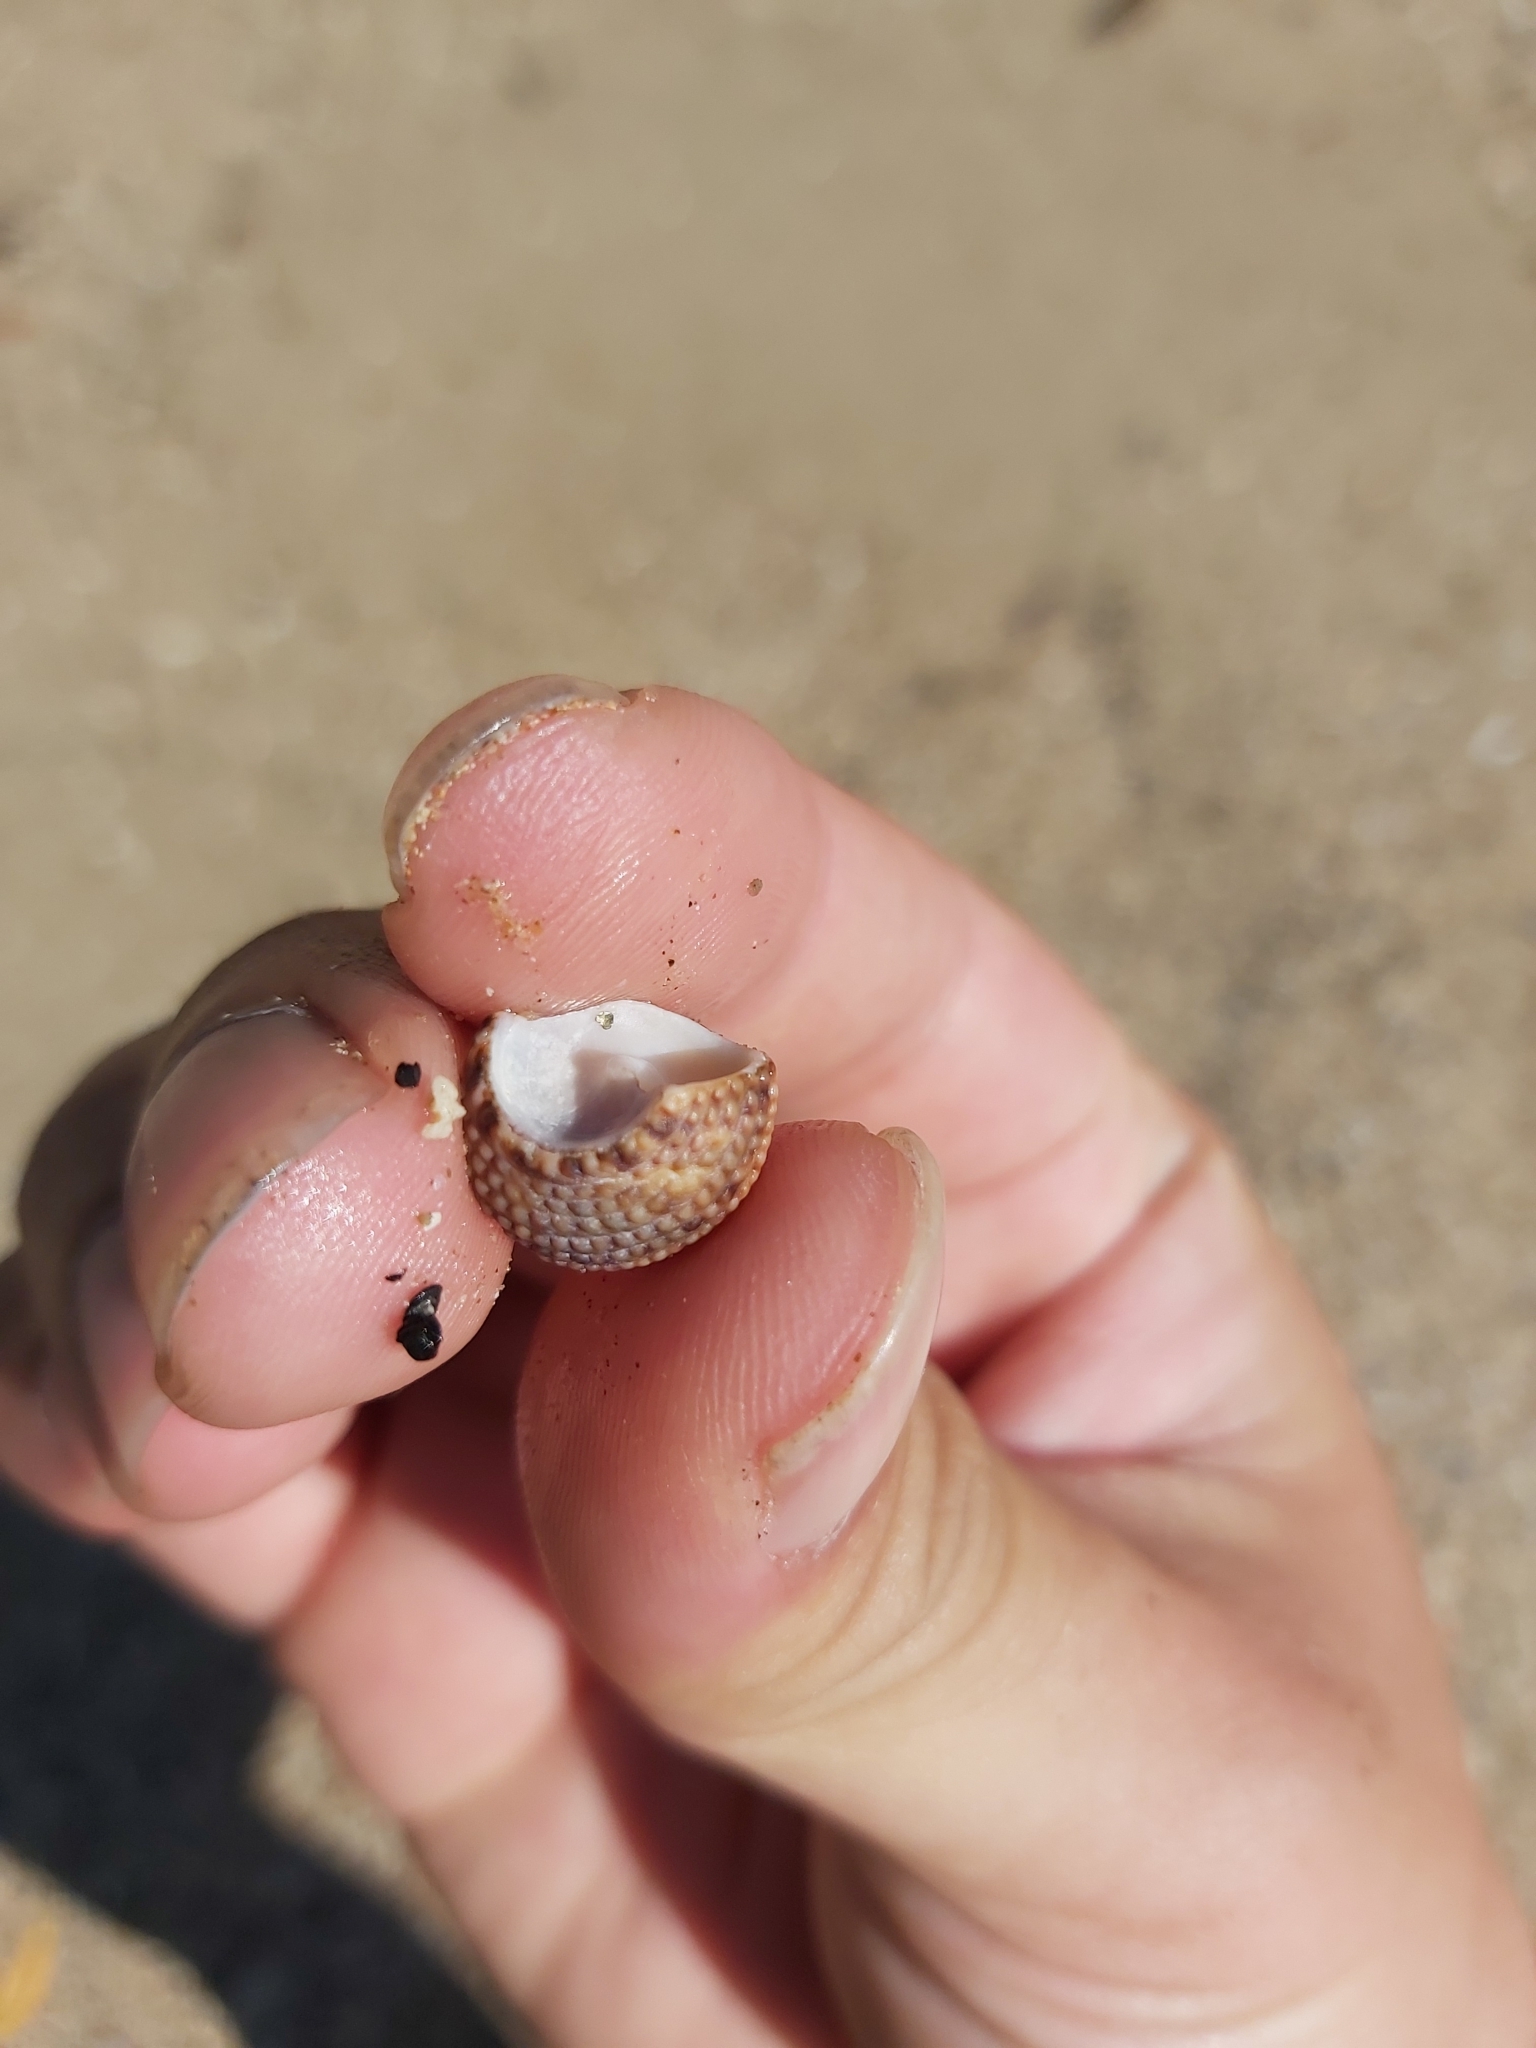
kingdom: Animalia
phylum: Mollusca
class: Gastropoda
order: Trochida
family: Trochidae
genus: Monodonta
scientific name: Monodonta labio
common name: Labio
